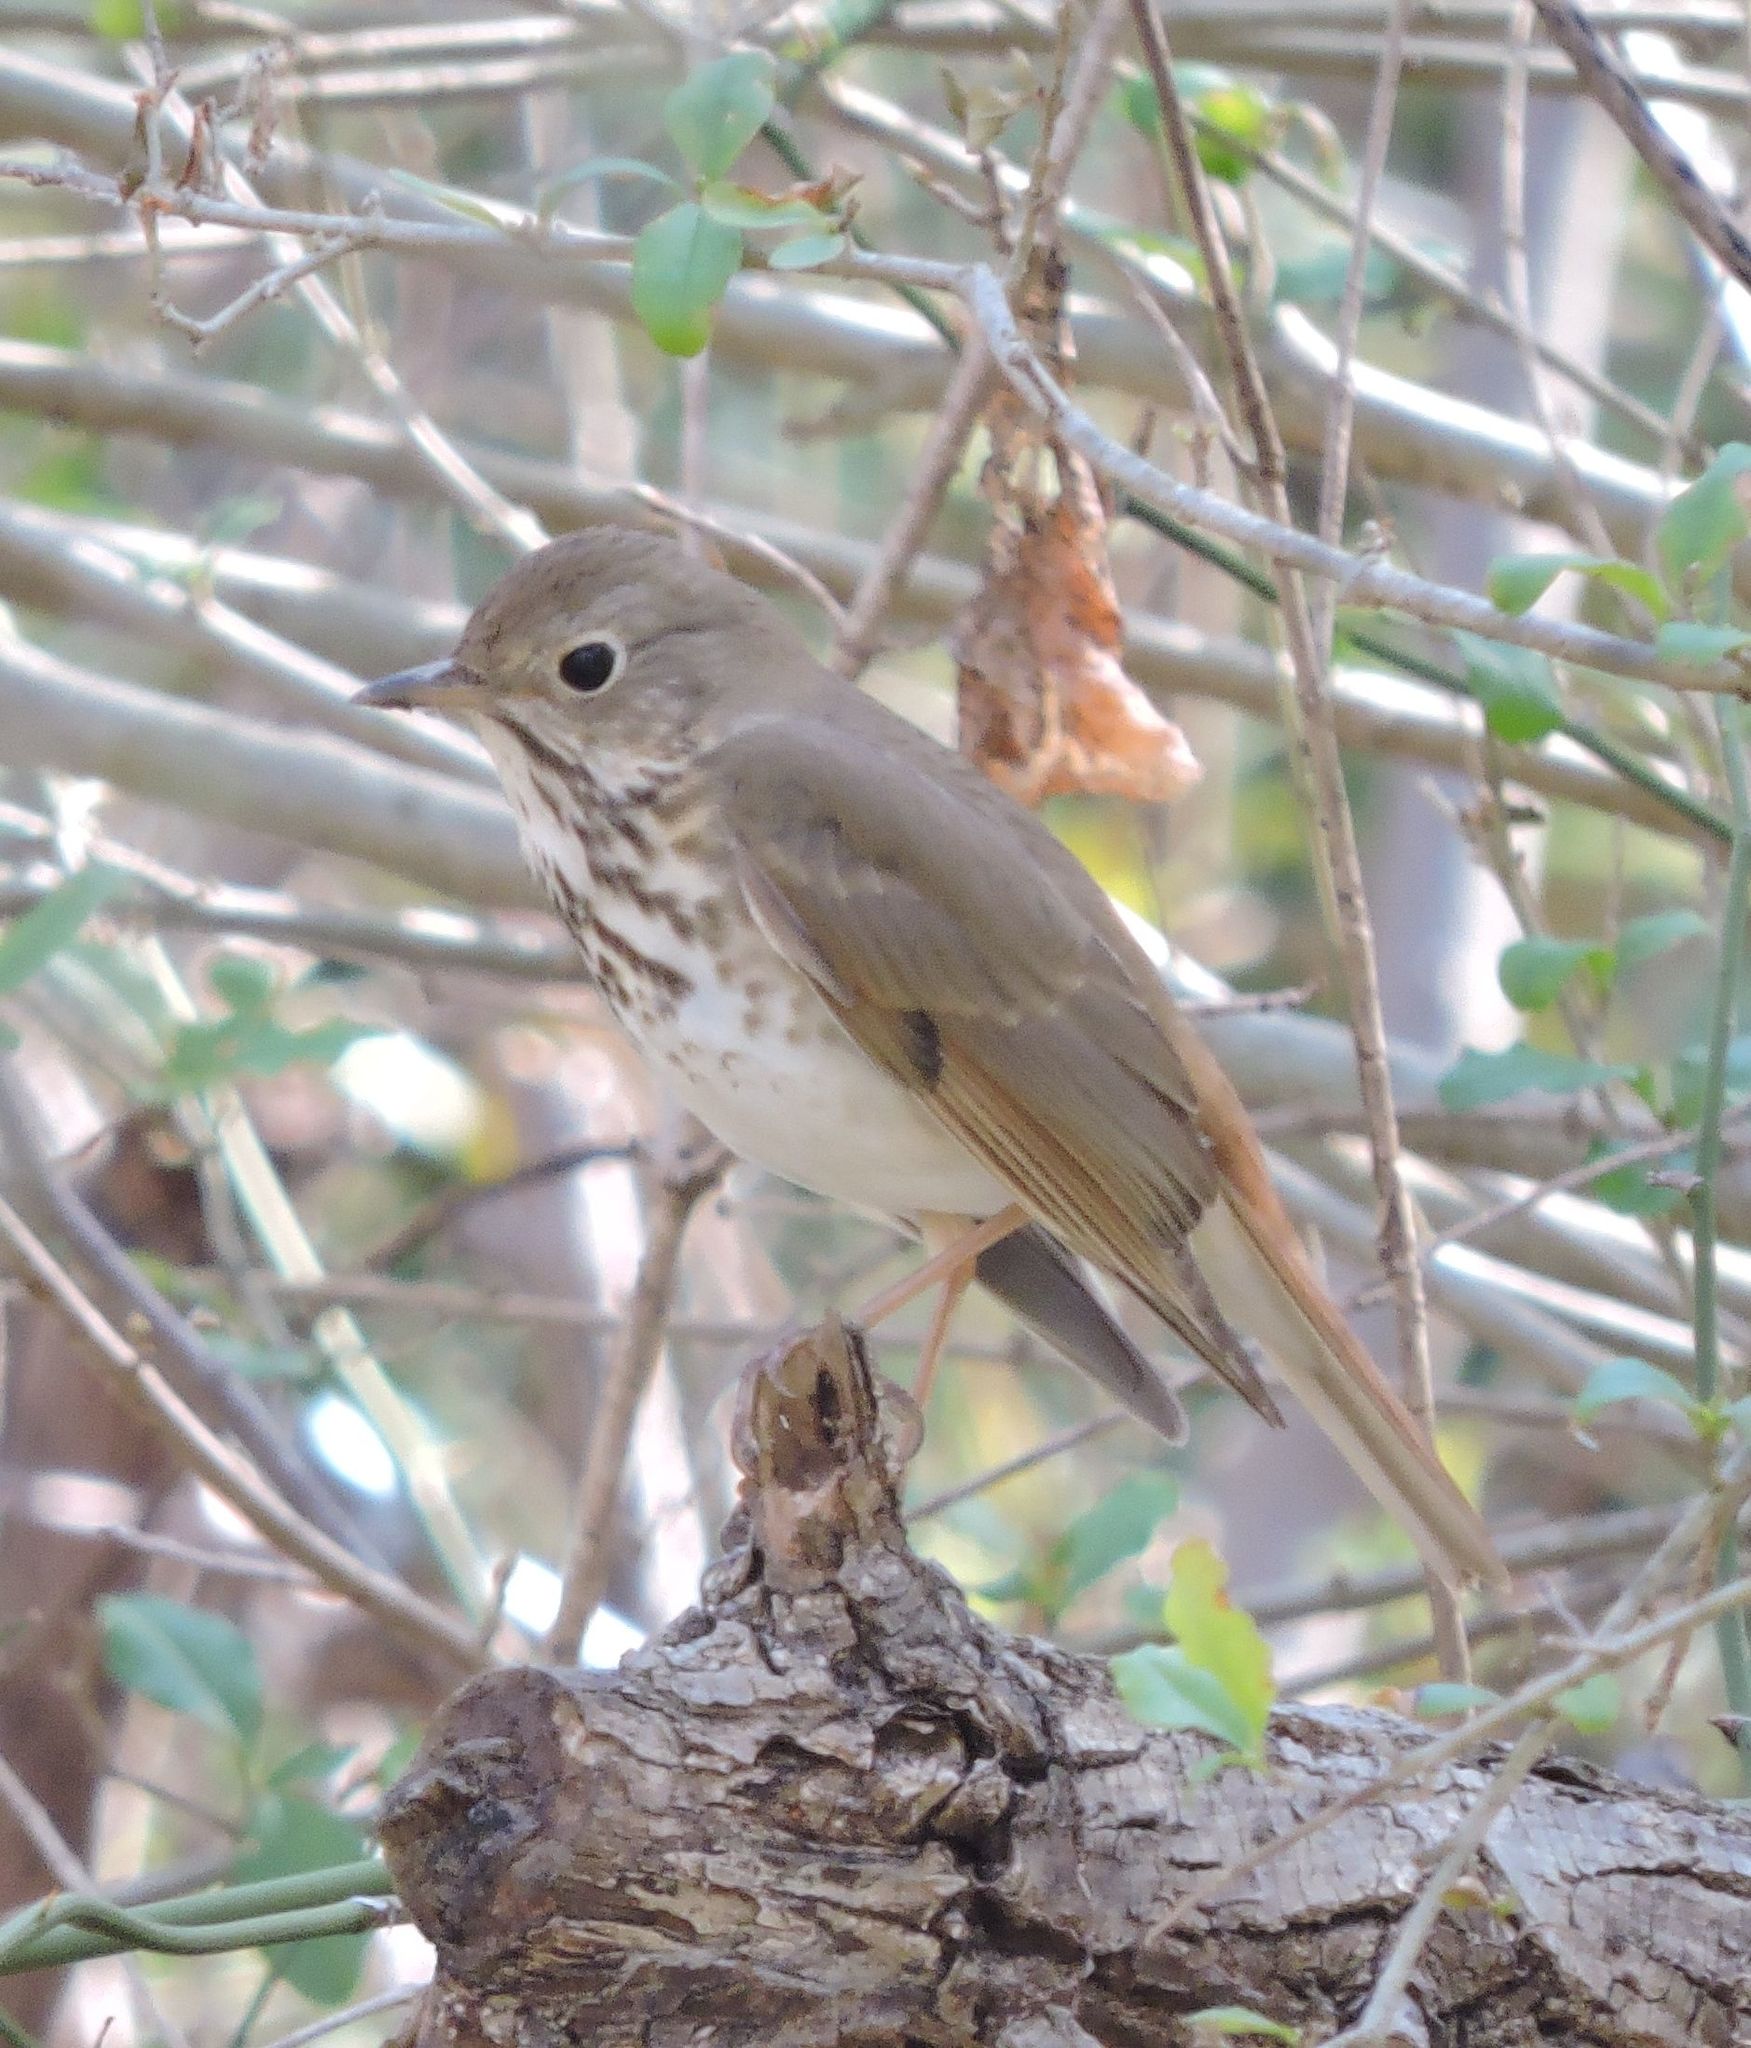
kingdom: Animalia
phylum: Chordata
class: Aves
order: Passeriformes
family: Turdidae
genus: Catharus
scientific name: Catharus guttatus
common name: Hermit thrush
